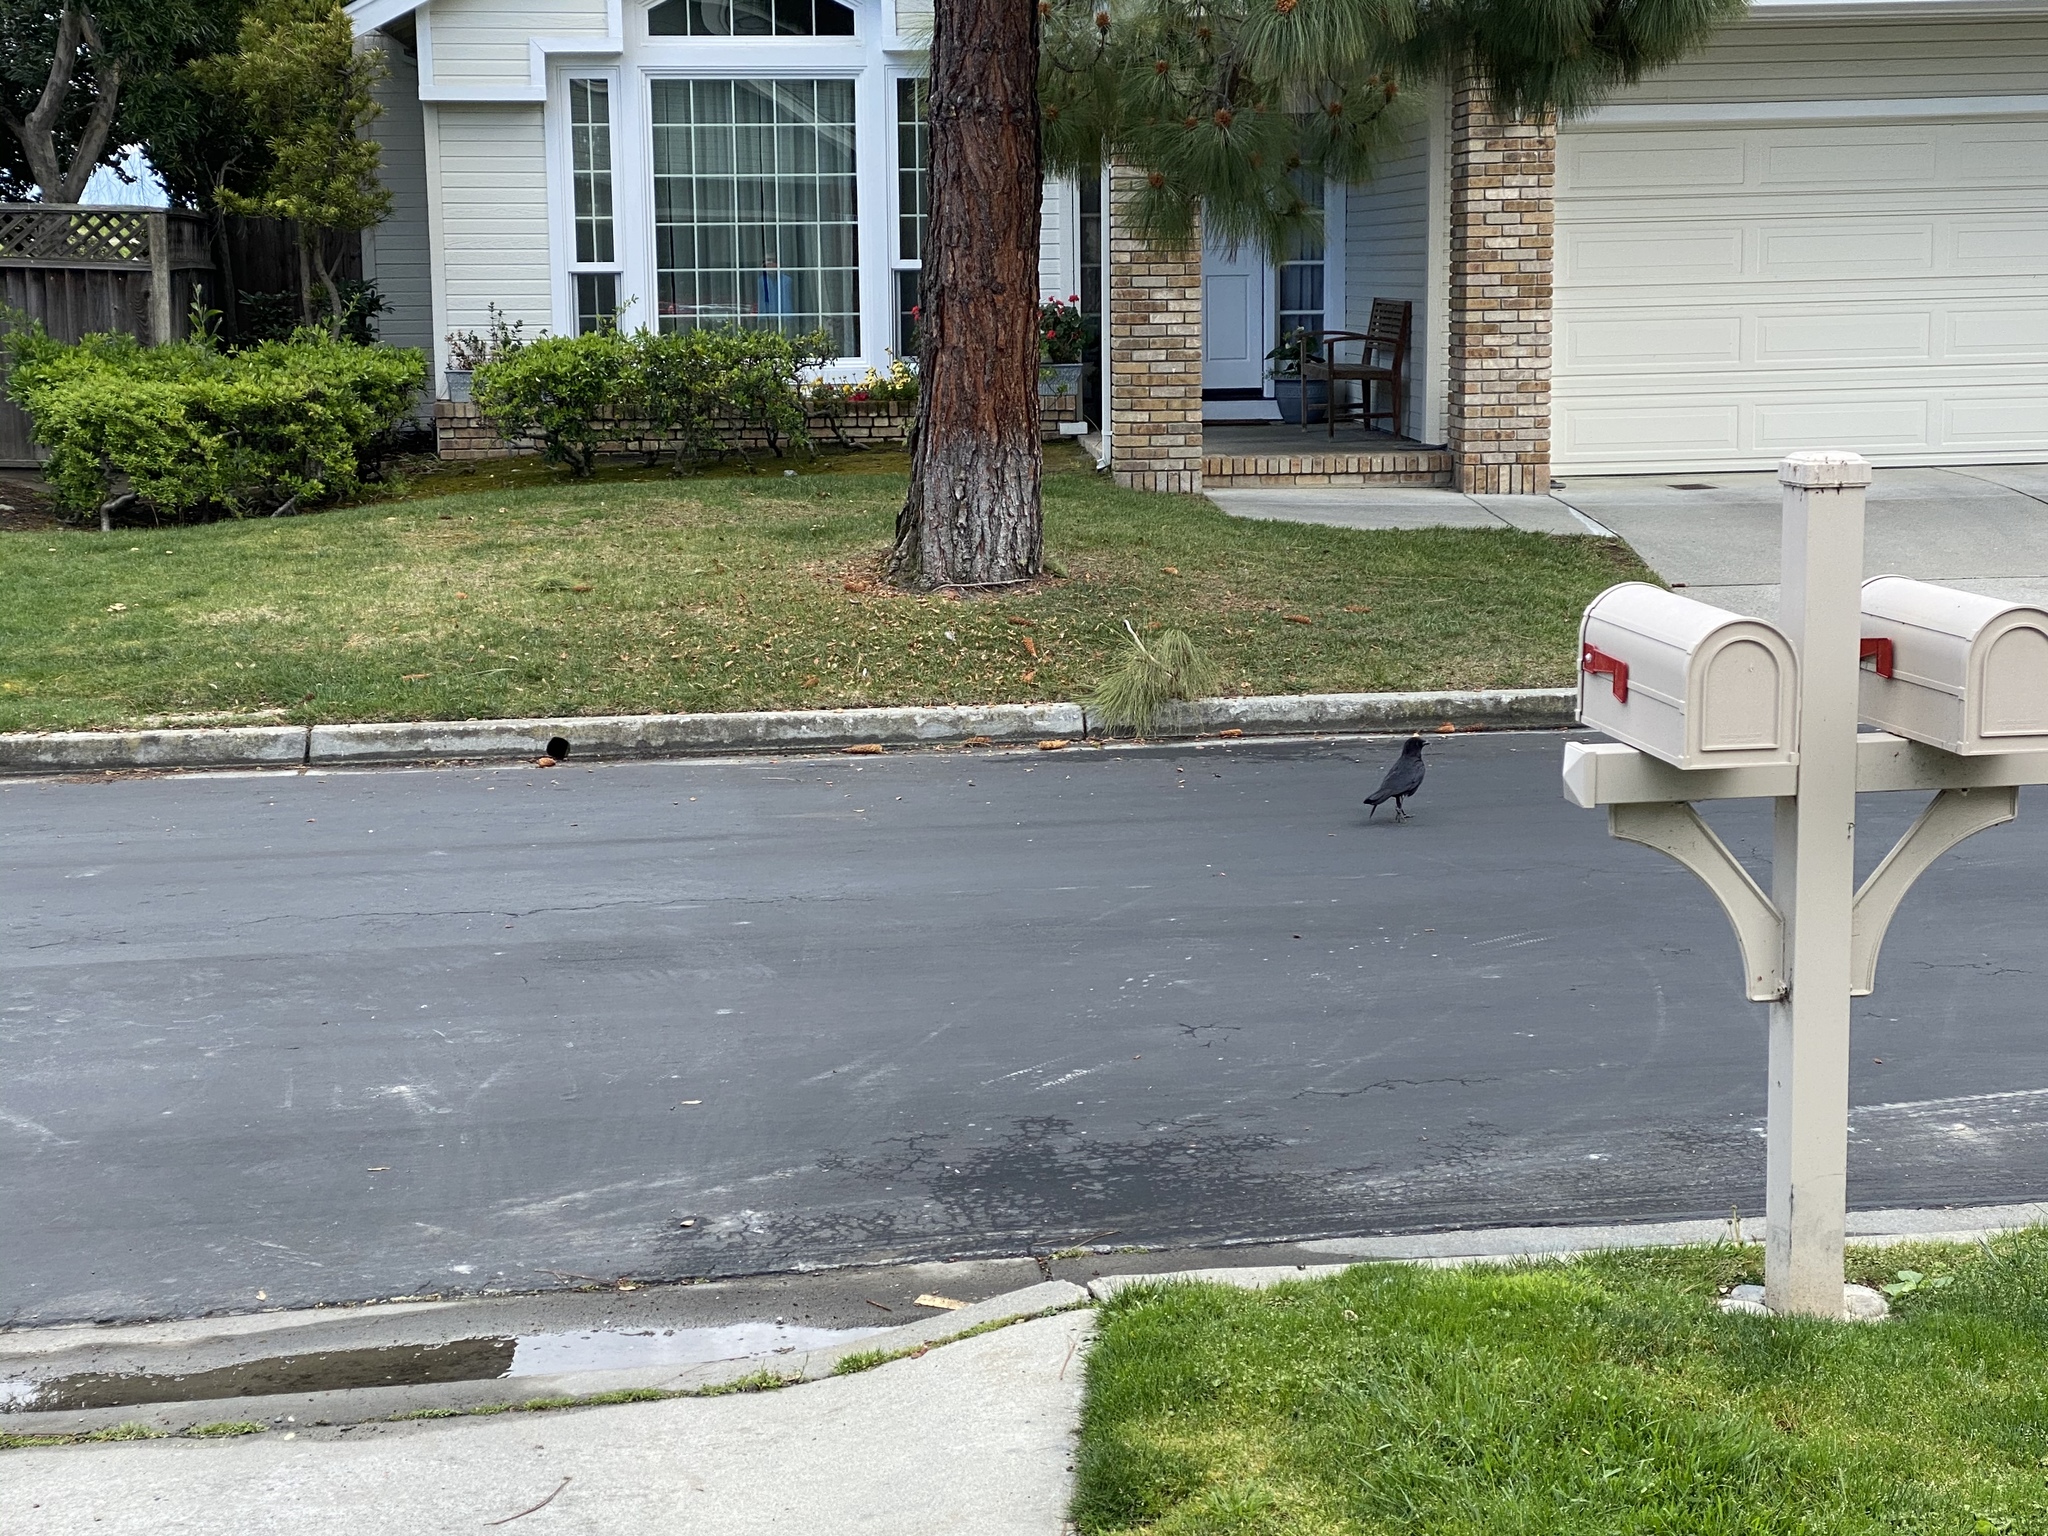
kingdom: Animalia
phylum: Chordata
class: Aves
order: Passeriformes
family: Corvidae
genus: Corvus
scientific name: Corvus brachyrhynchos
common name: American crow
